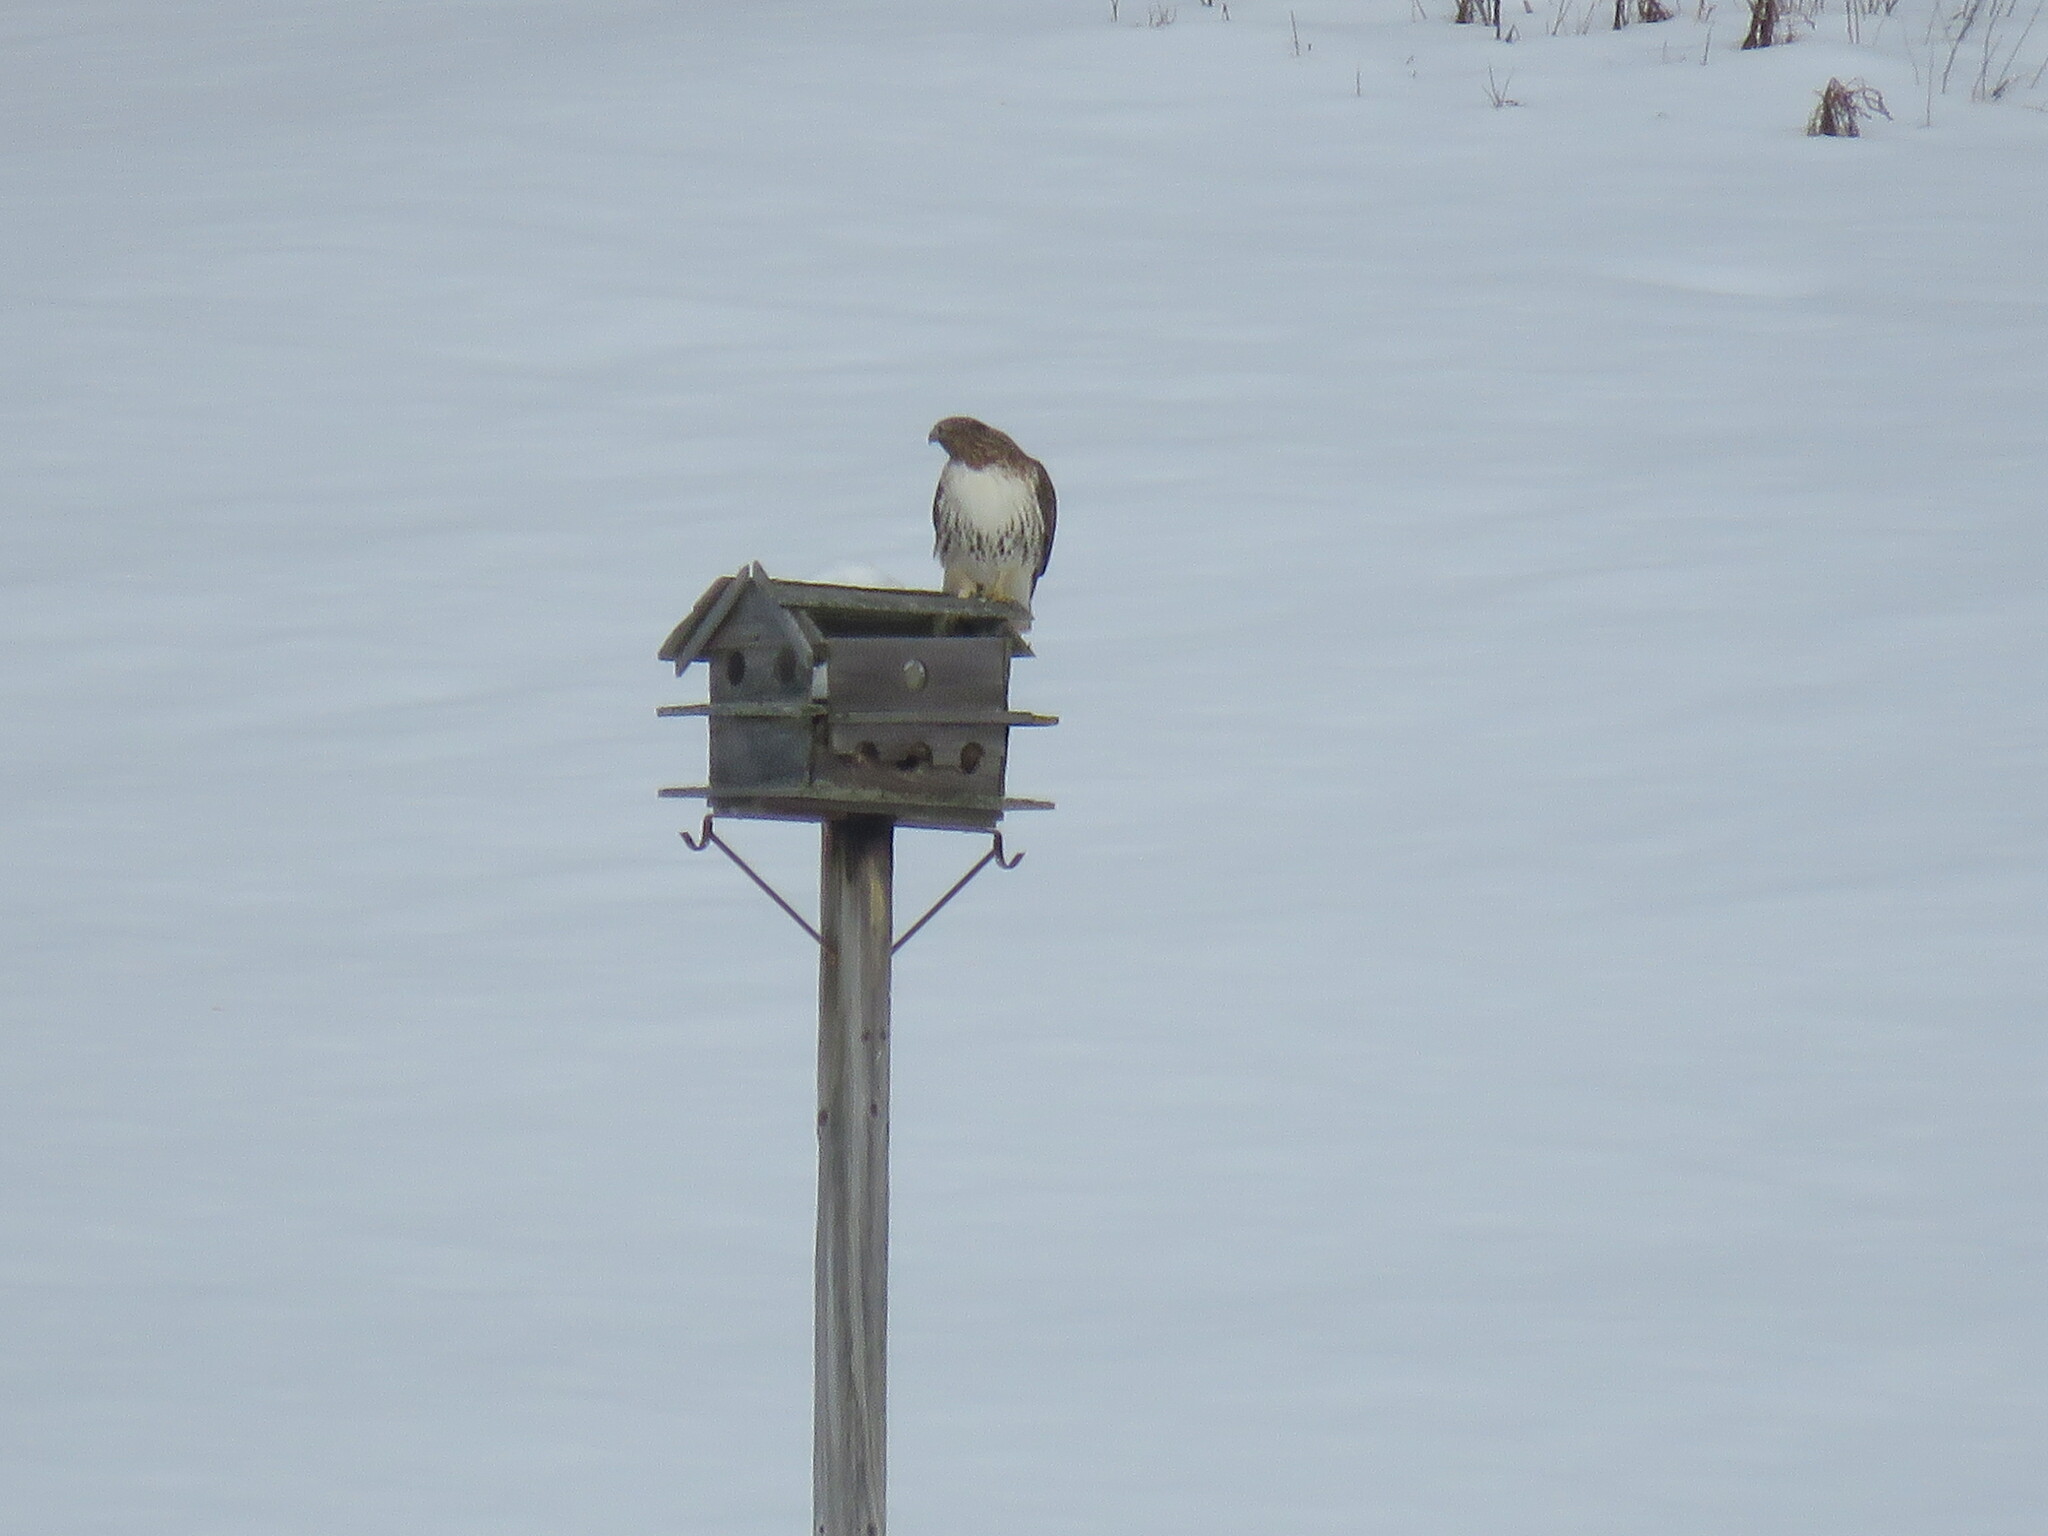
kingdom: Animalia
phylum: Chordata
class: Aves
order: Accipitriformes
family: Accipitridae
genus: Buteo
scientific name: Buteo jamaicensis
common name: Red-tailed hawk
